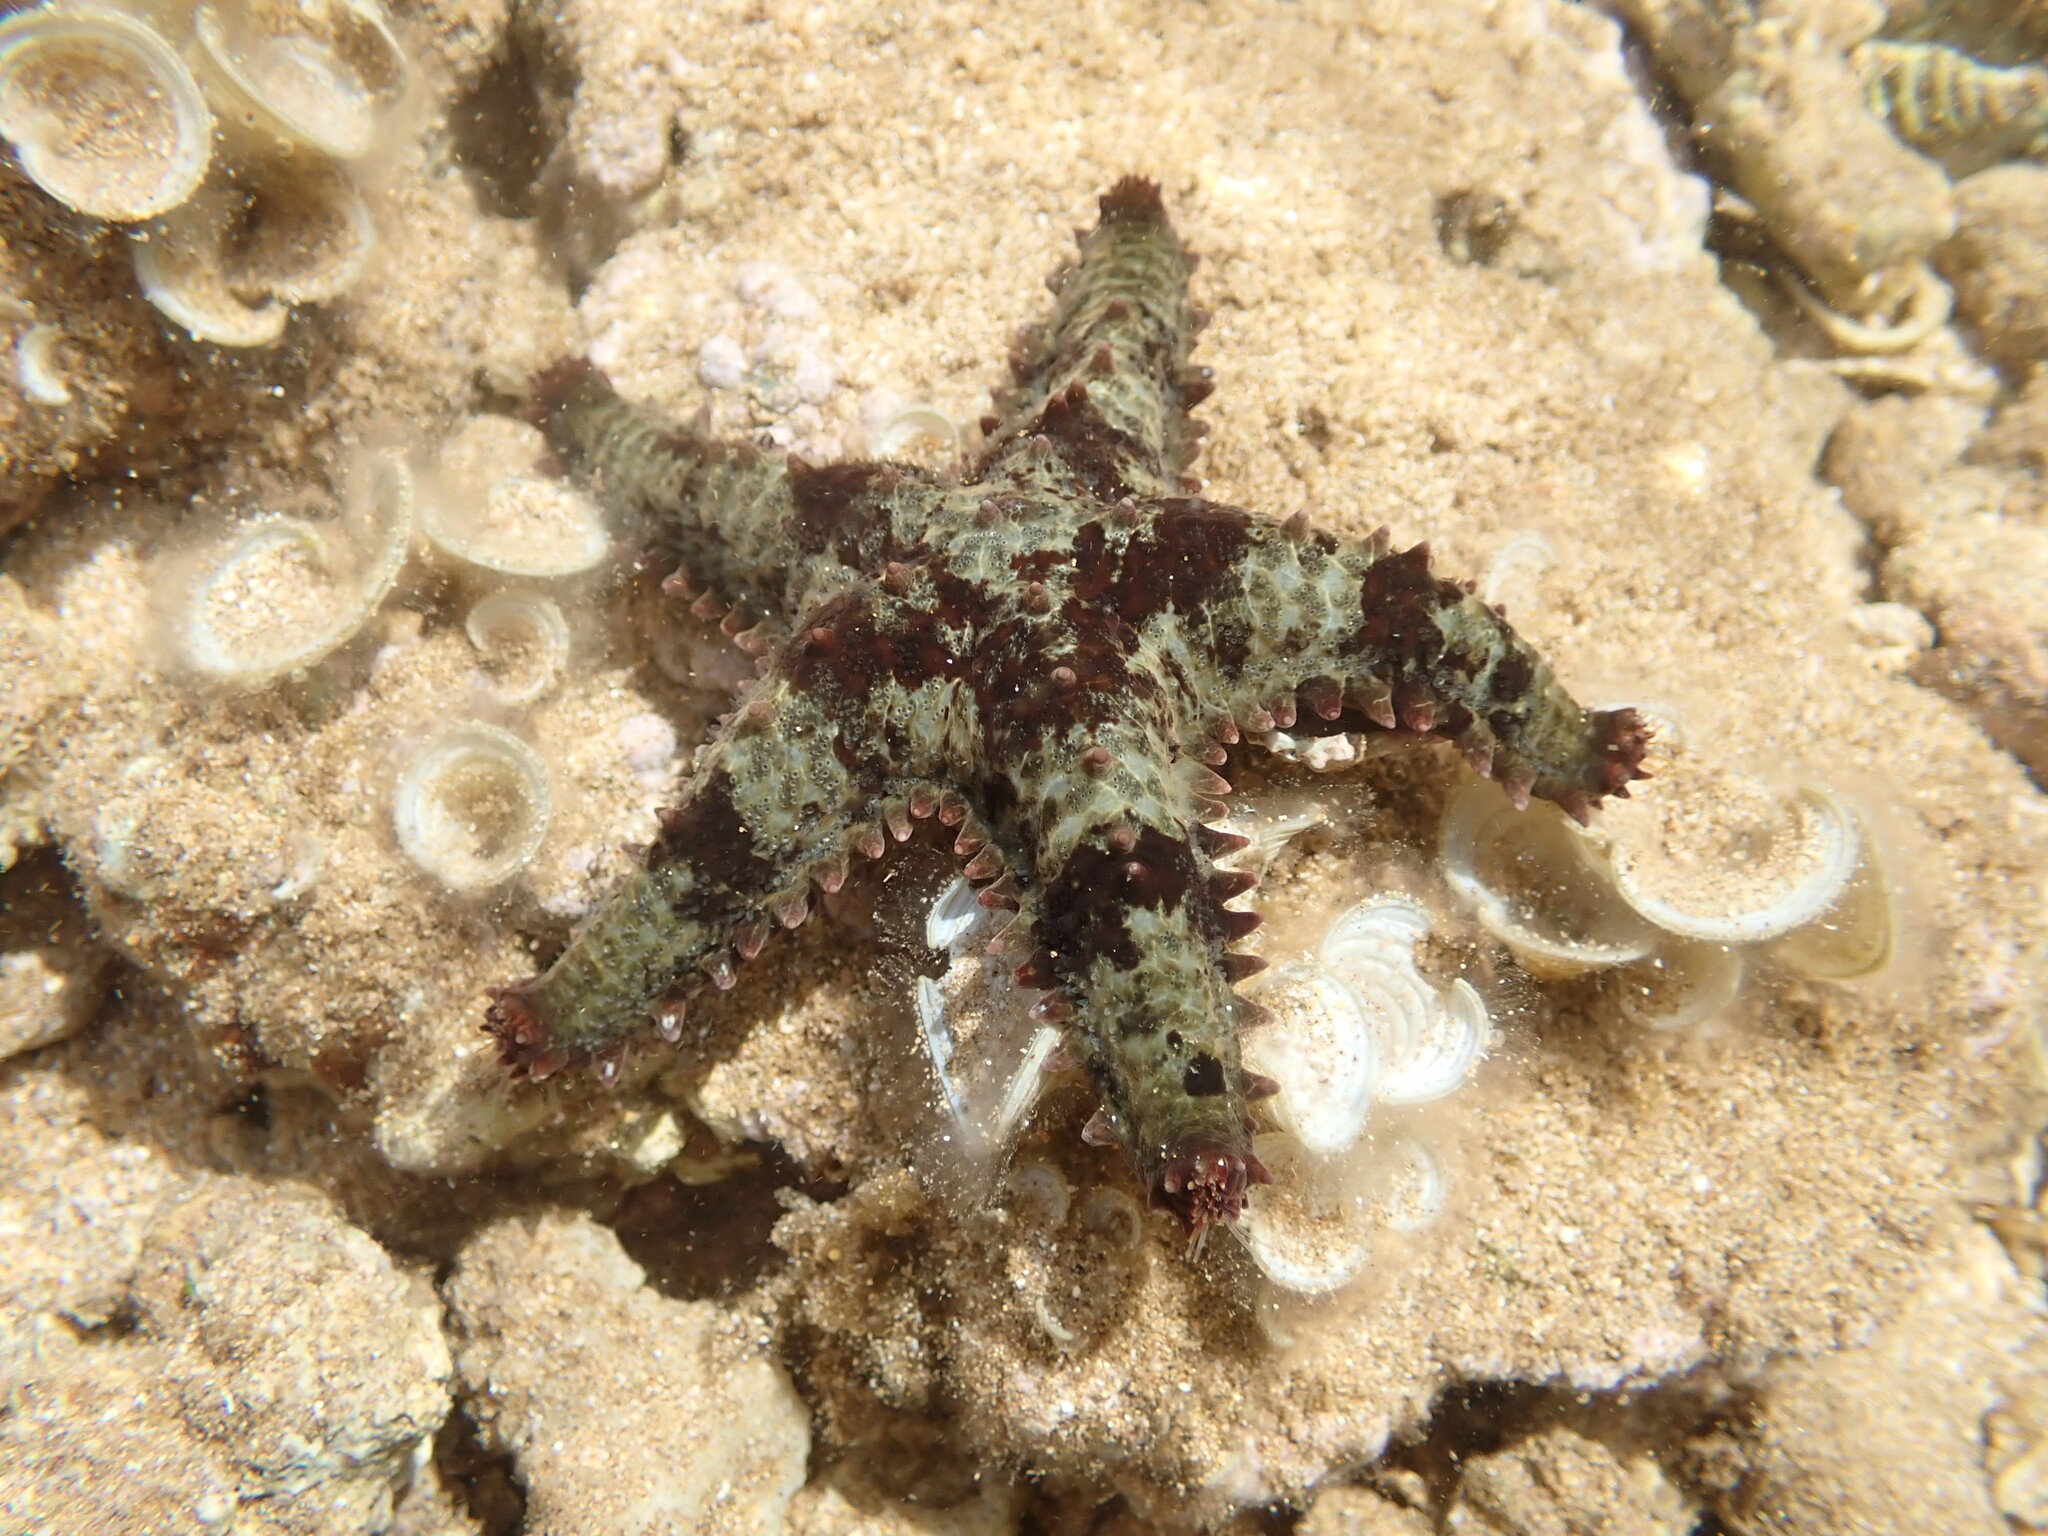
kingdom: Animalia
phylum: Echinodermata
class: Asteroidea
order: Valvatida
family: Asteropseidae
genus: Asteropsis
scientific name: Asteropsis carinifera
